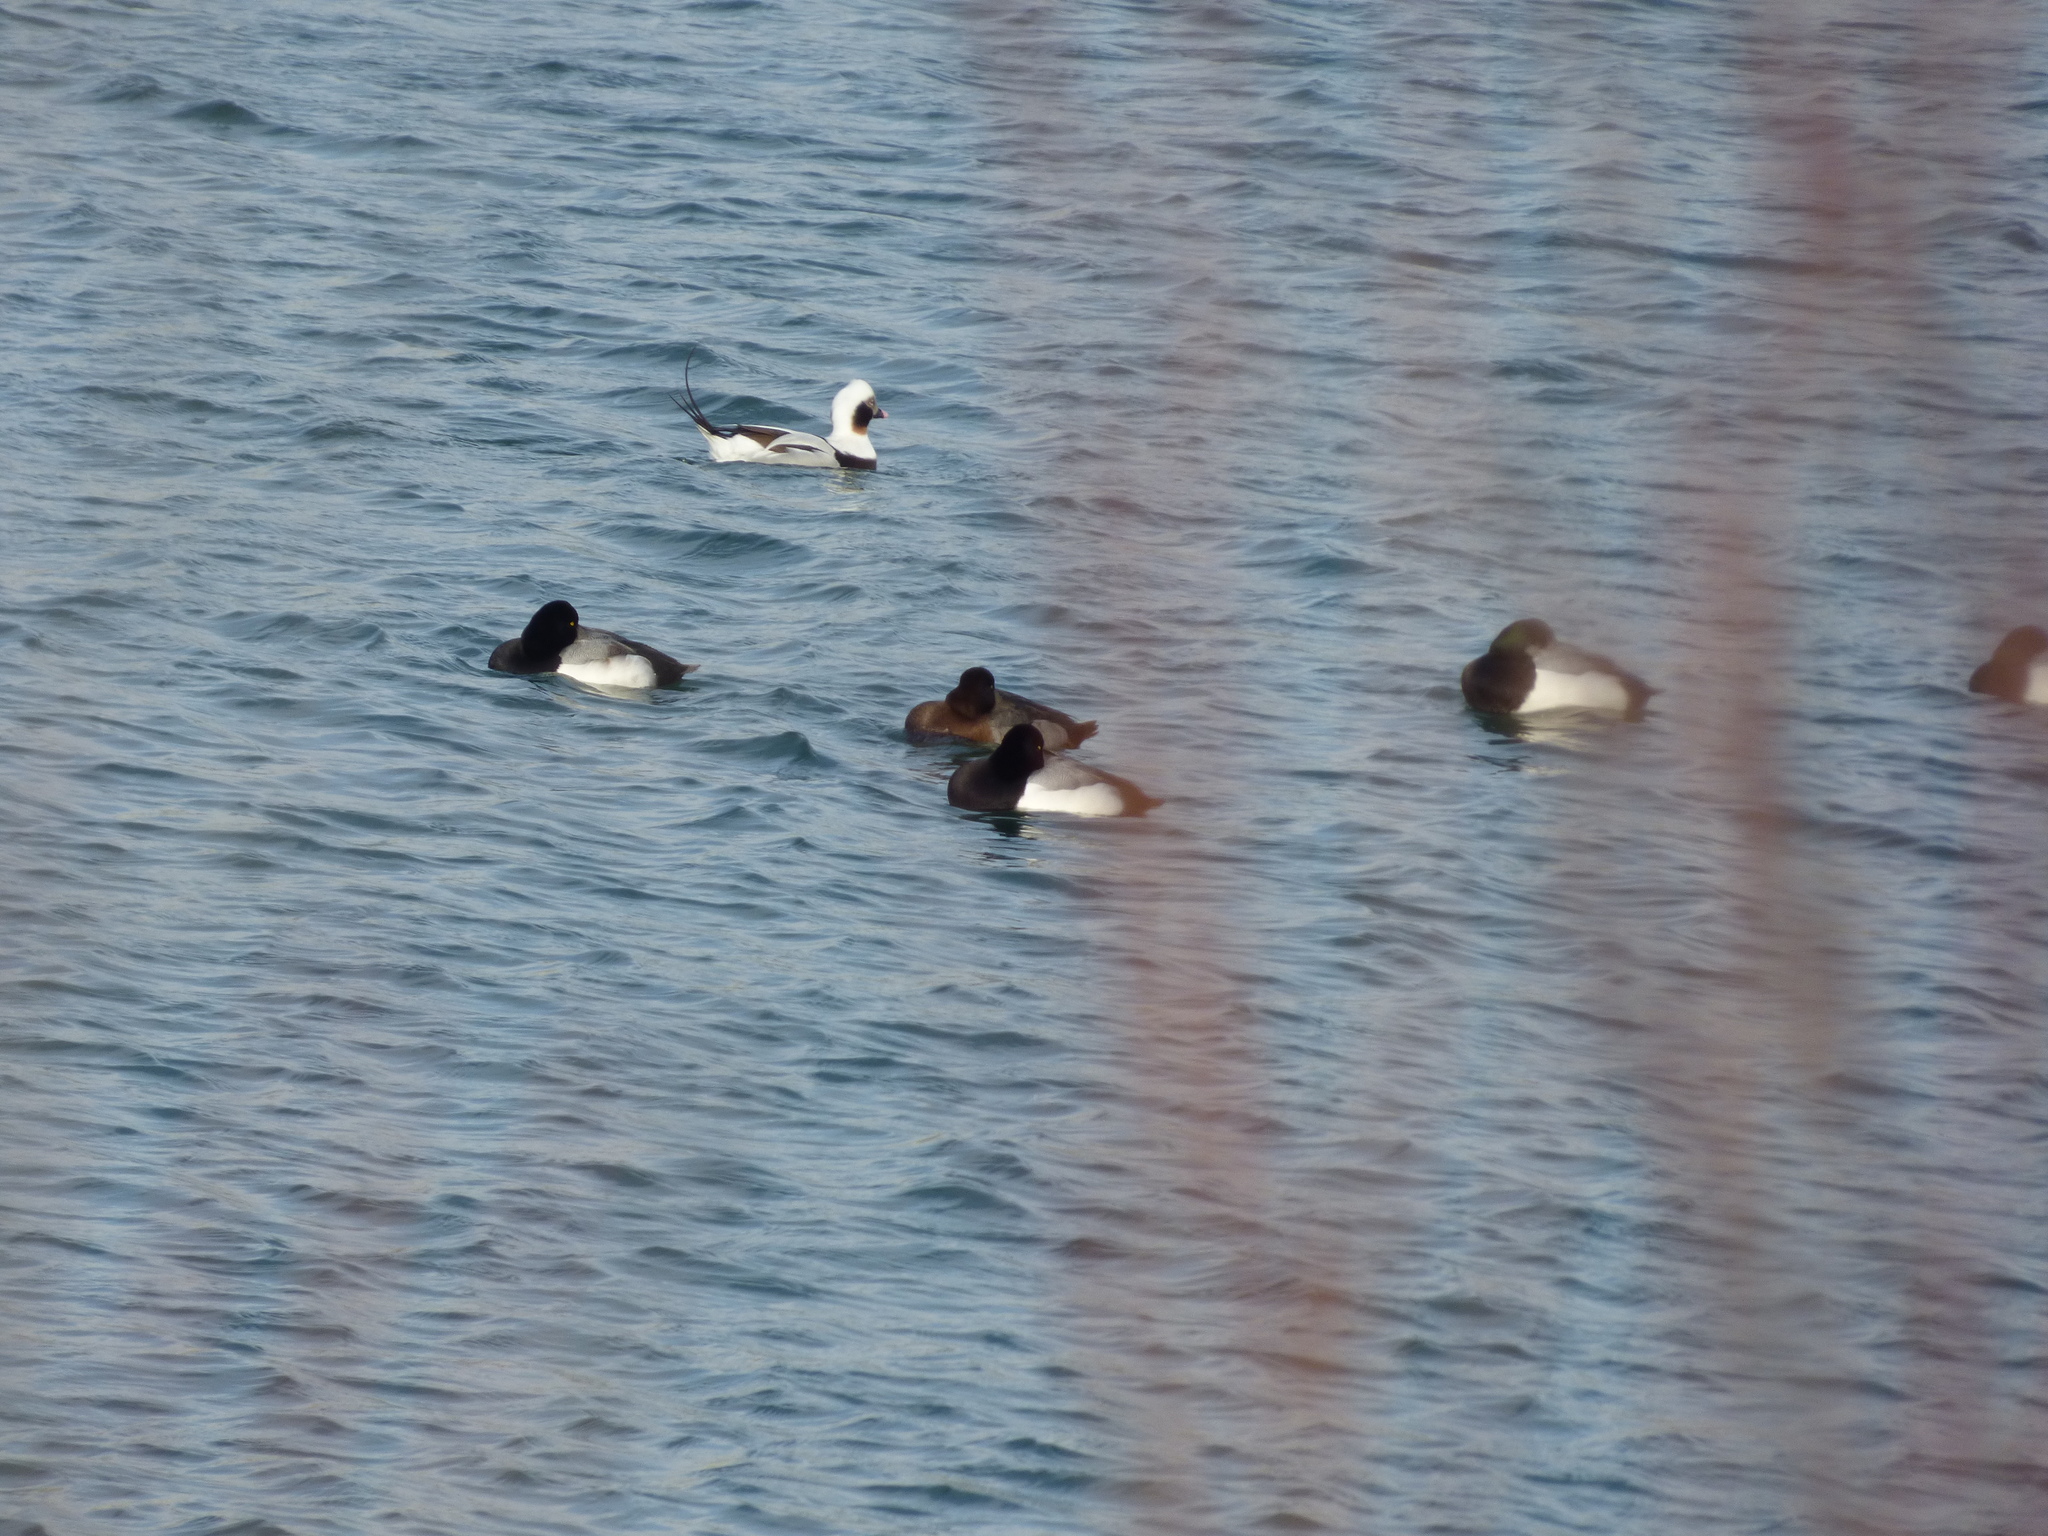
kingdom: Animalia
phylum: Chordata
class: Aves
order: Anseriformes
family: Anatidae
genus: Clangula
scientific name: Clangula hyemalis
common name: Long-tailed duck
